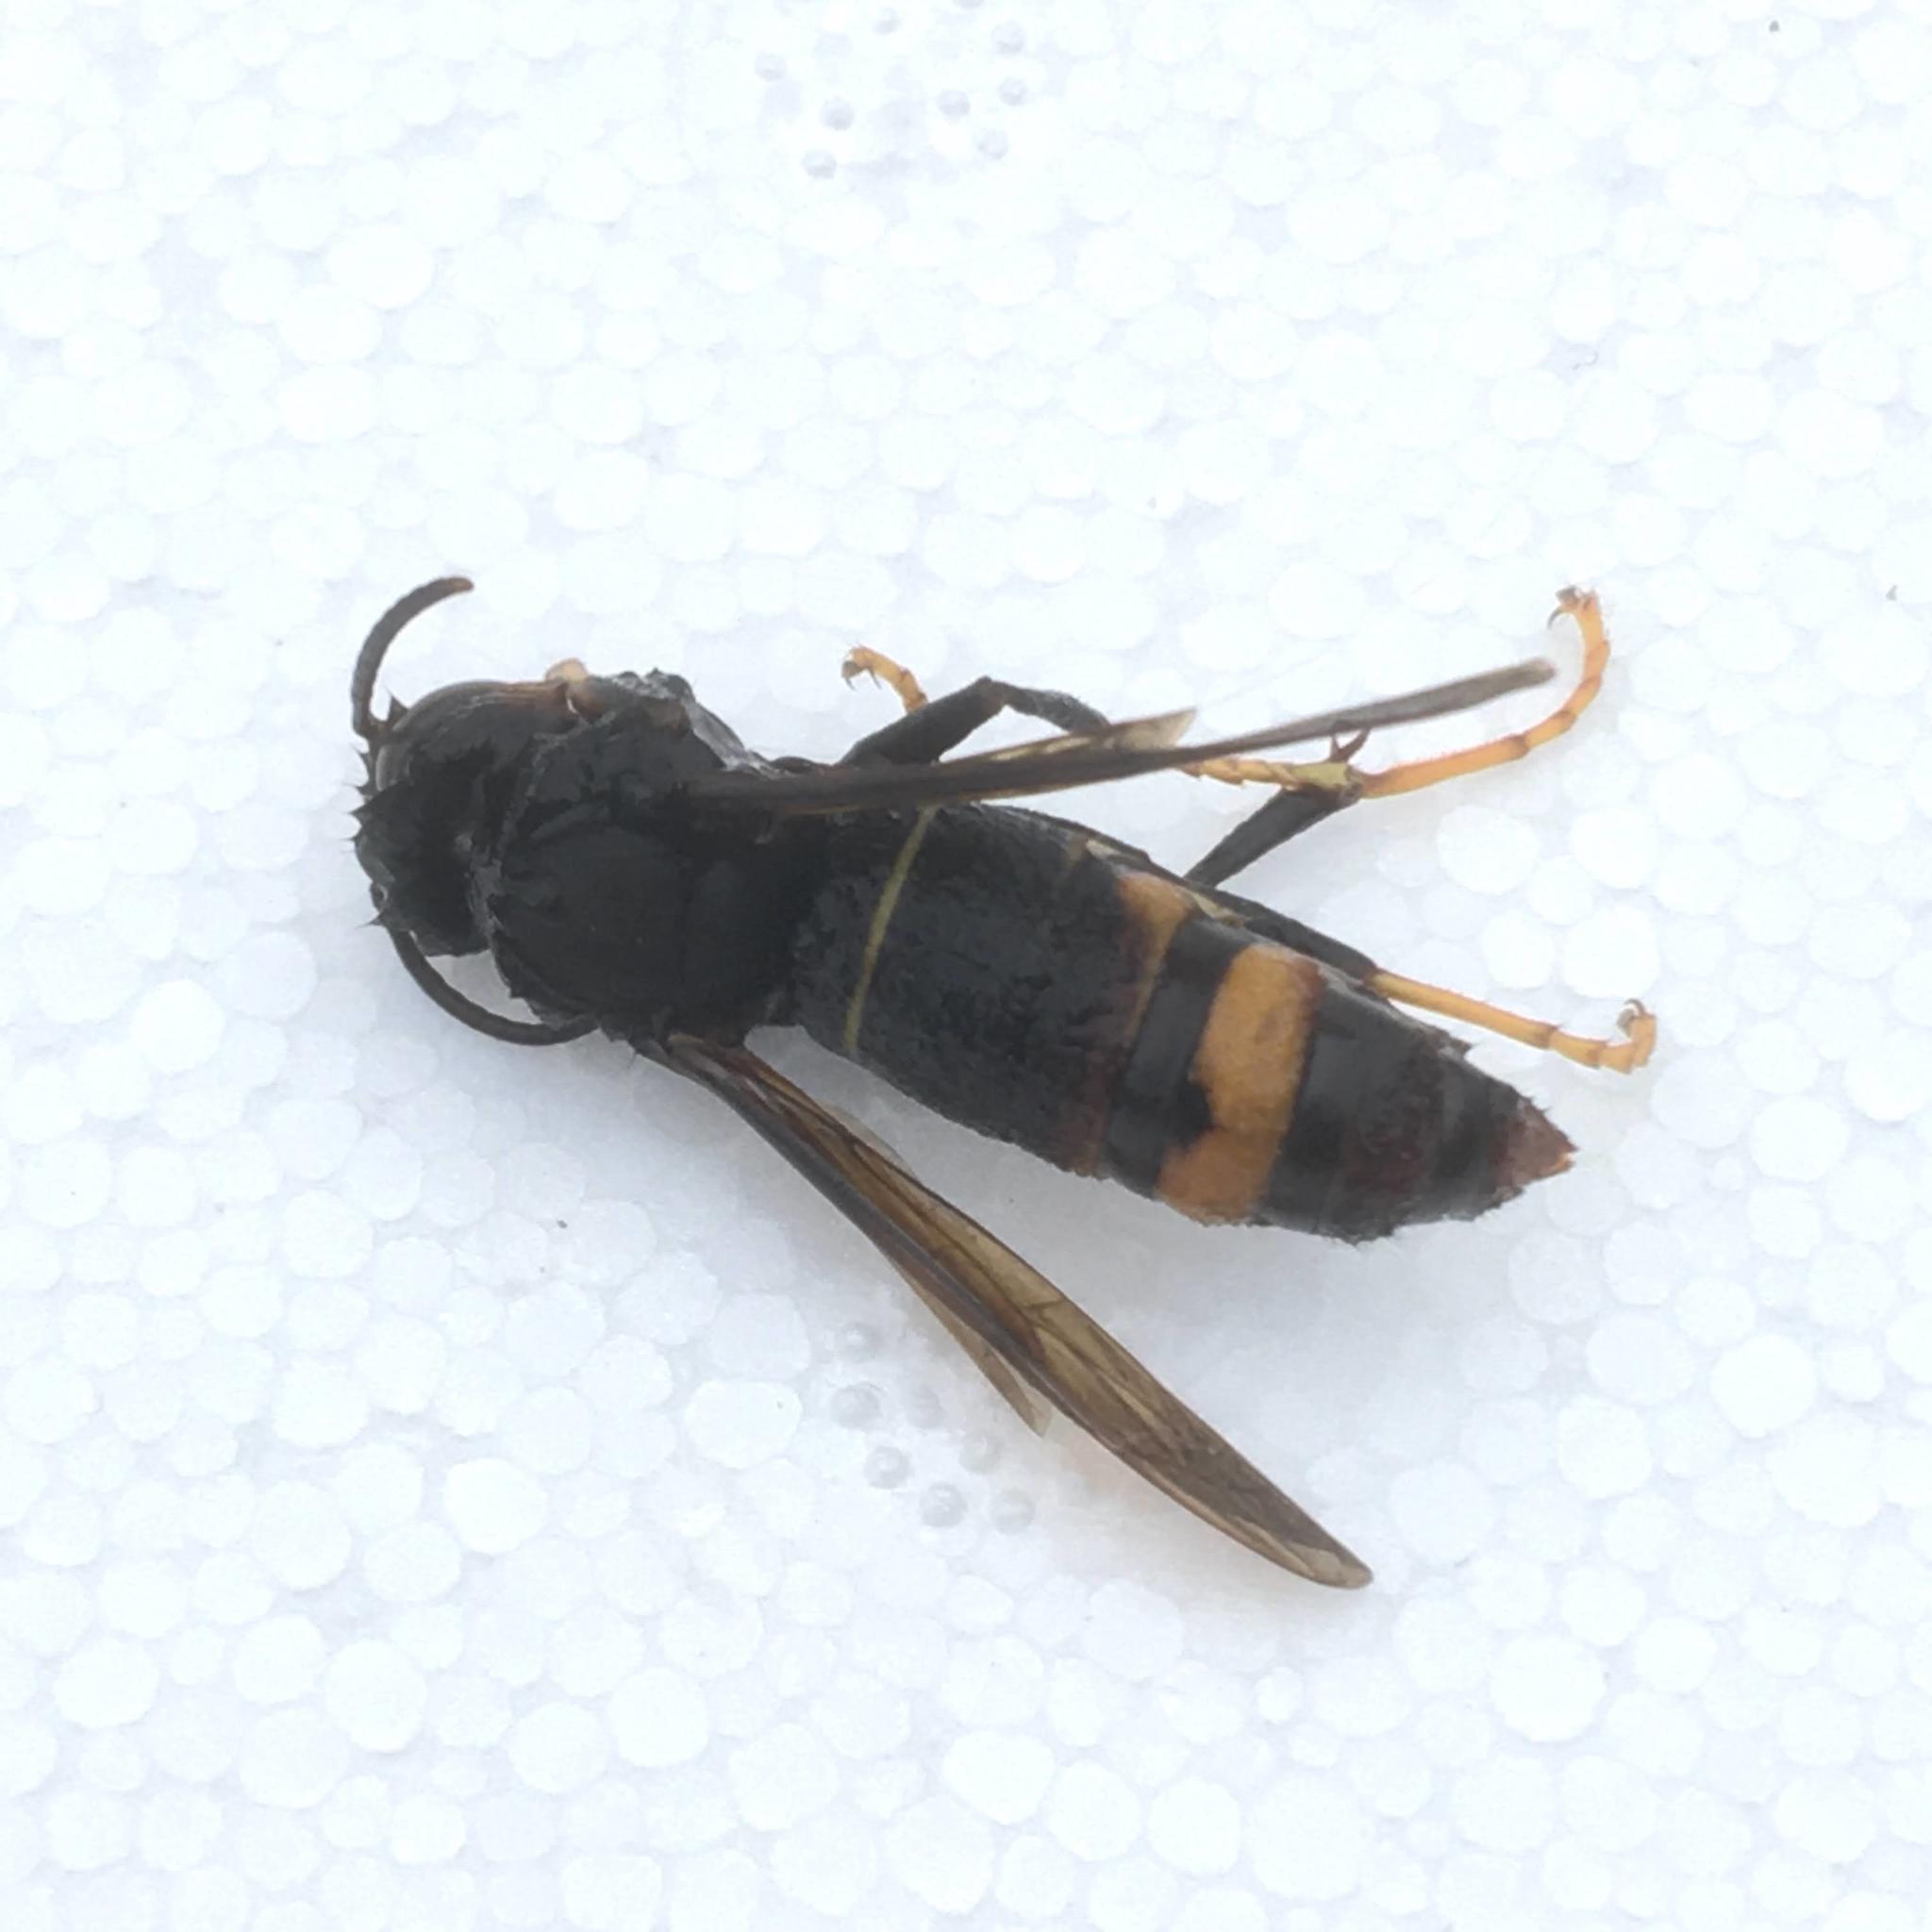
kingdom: Animalia
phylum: Arthropoda
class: Insecta
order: Hymenoptera
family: Vespidae
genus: Vespa
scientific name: Vespa velutina
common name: Asian hornet
